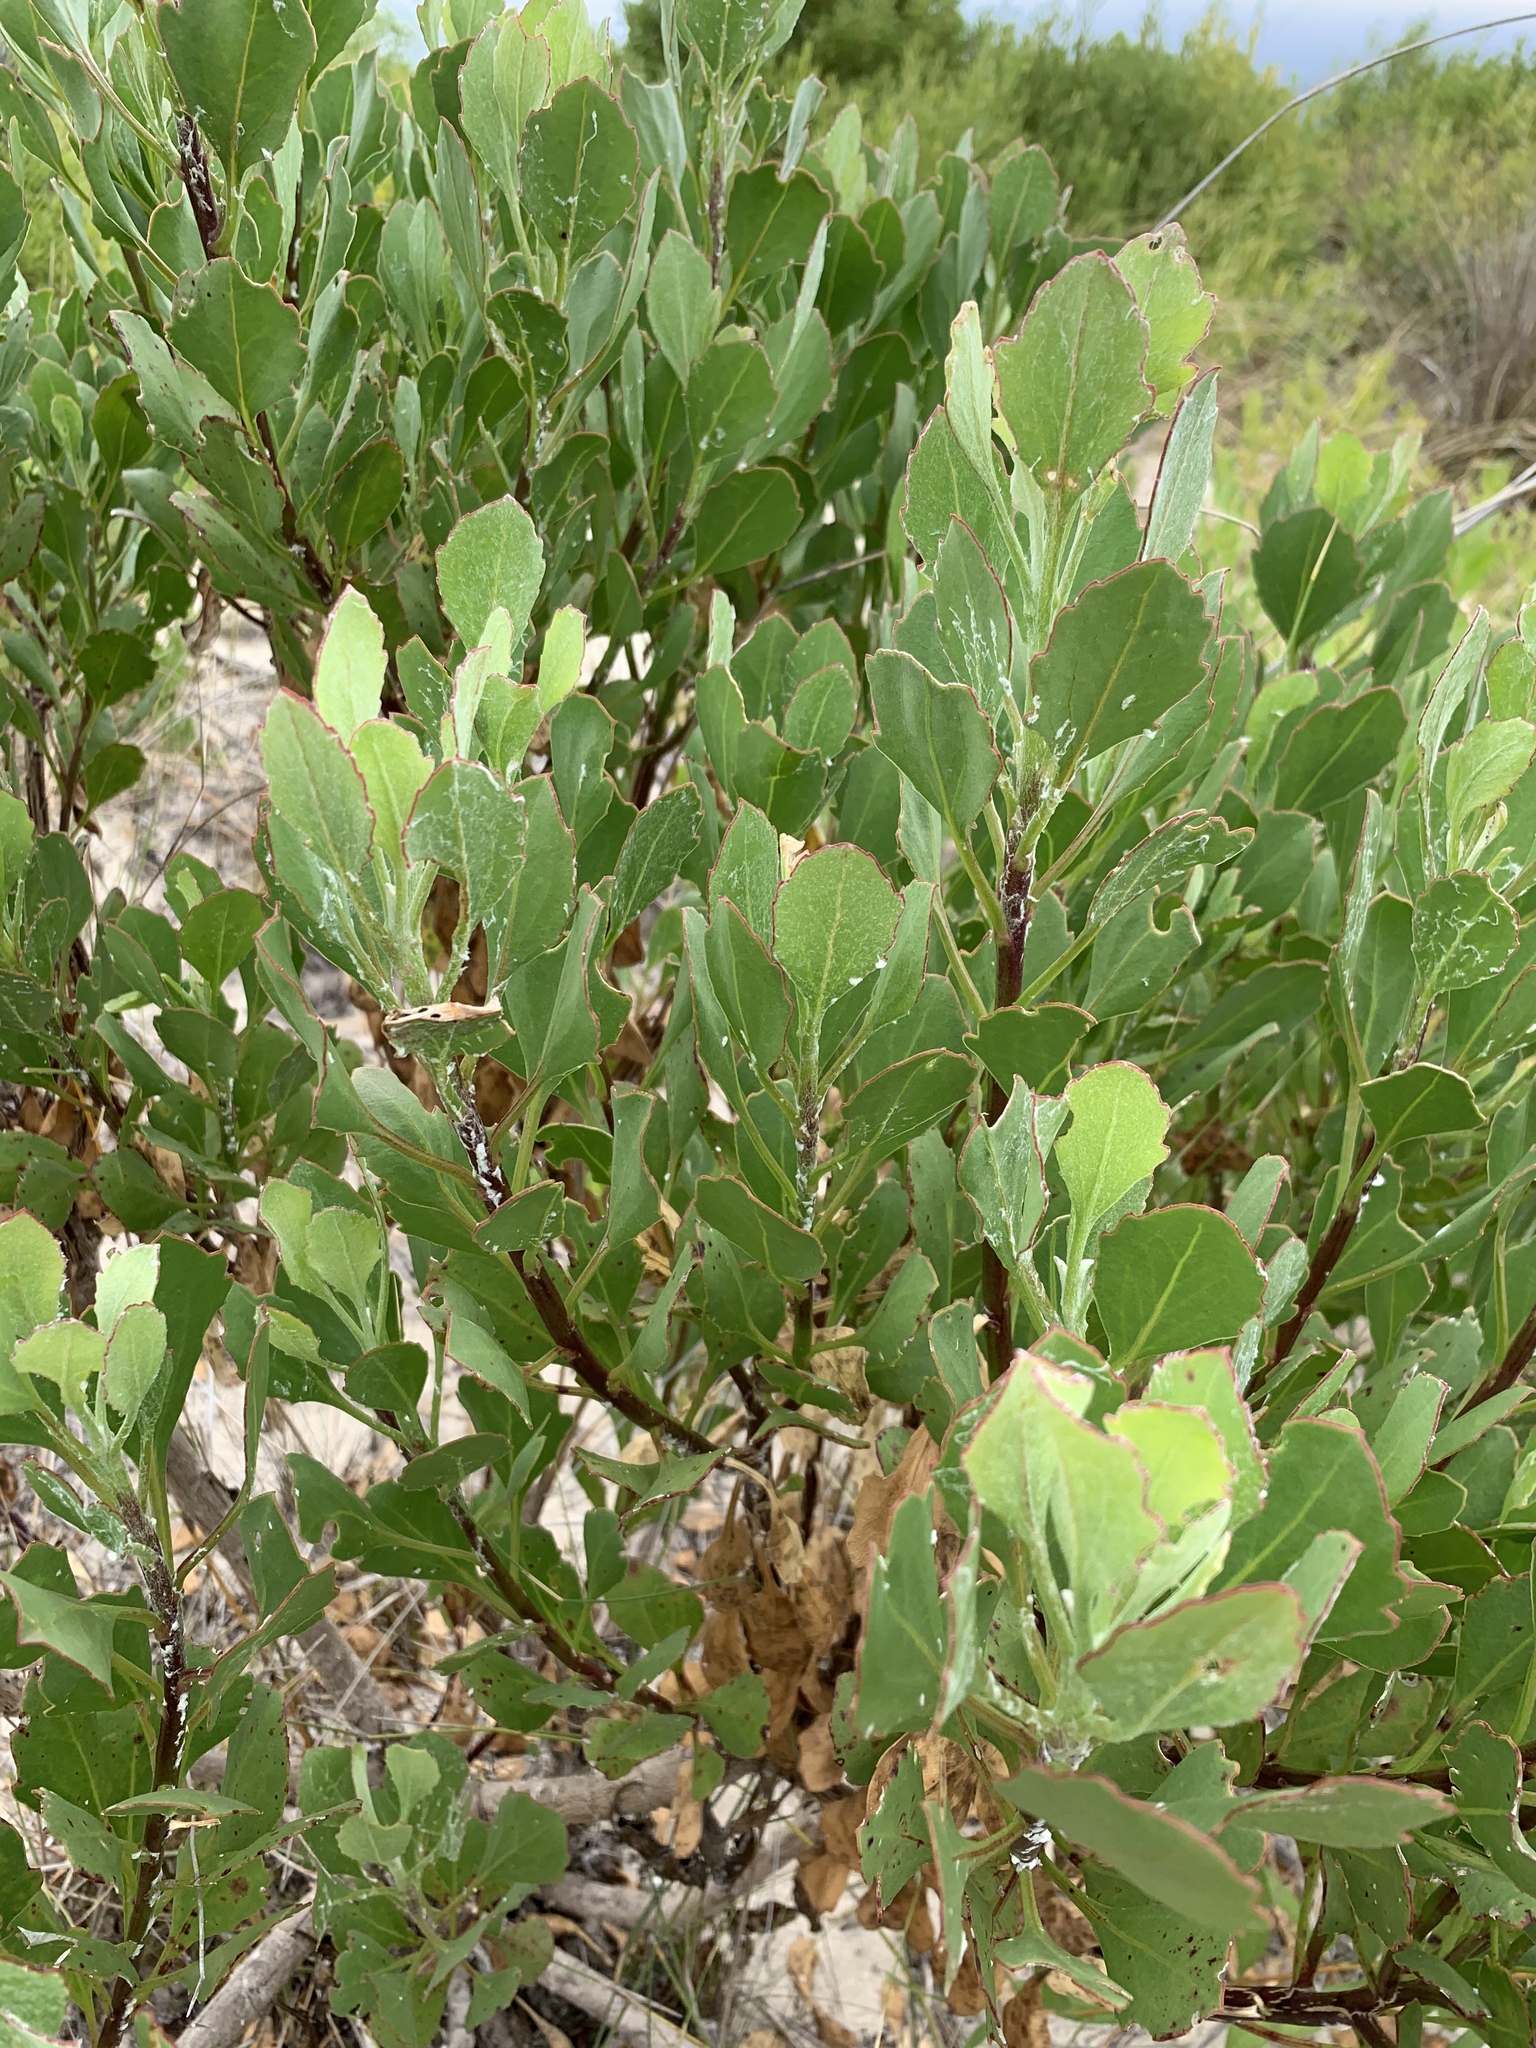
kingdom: Plantae
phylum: Tracheophyta
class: Magnoliopsida
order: Asterales
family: Asteraceae
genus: Osteospermum
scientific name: Osteospermum moniliferum
